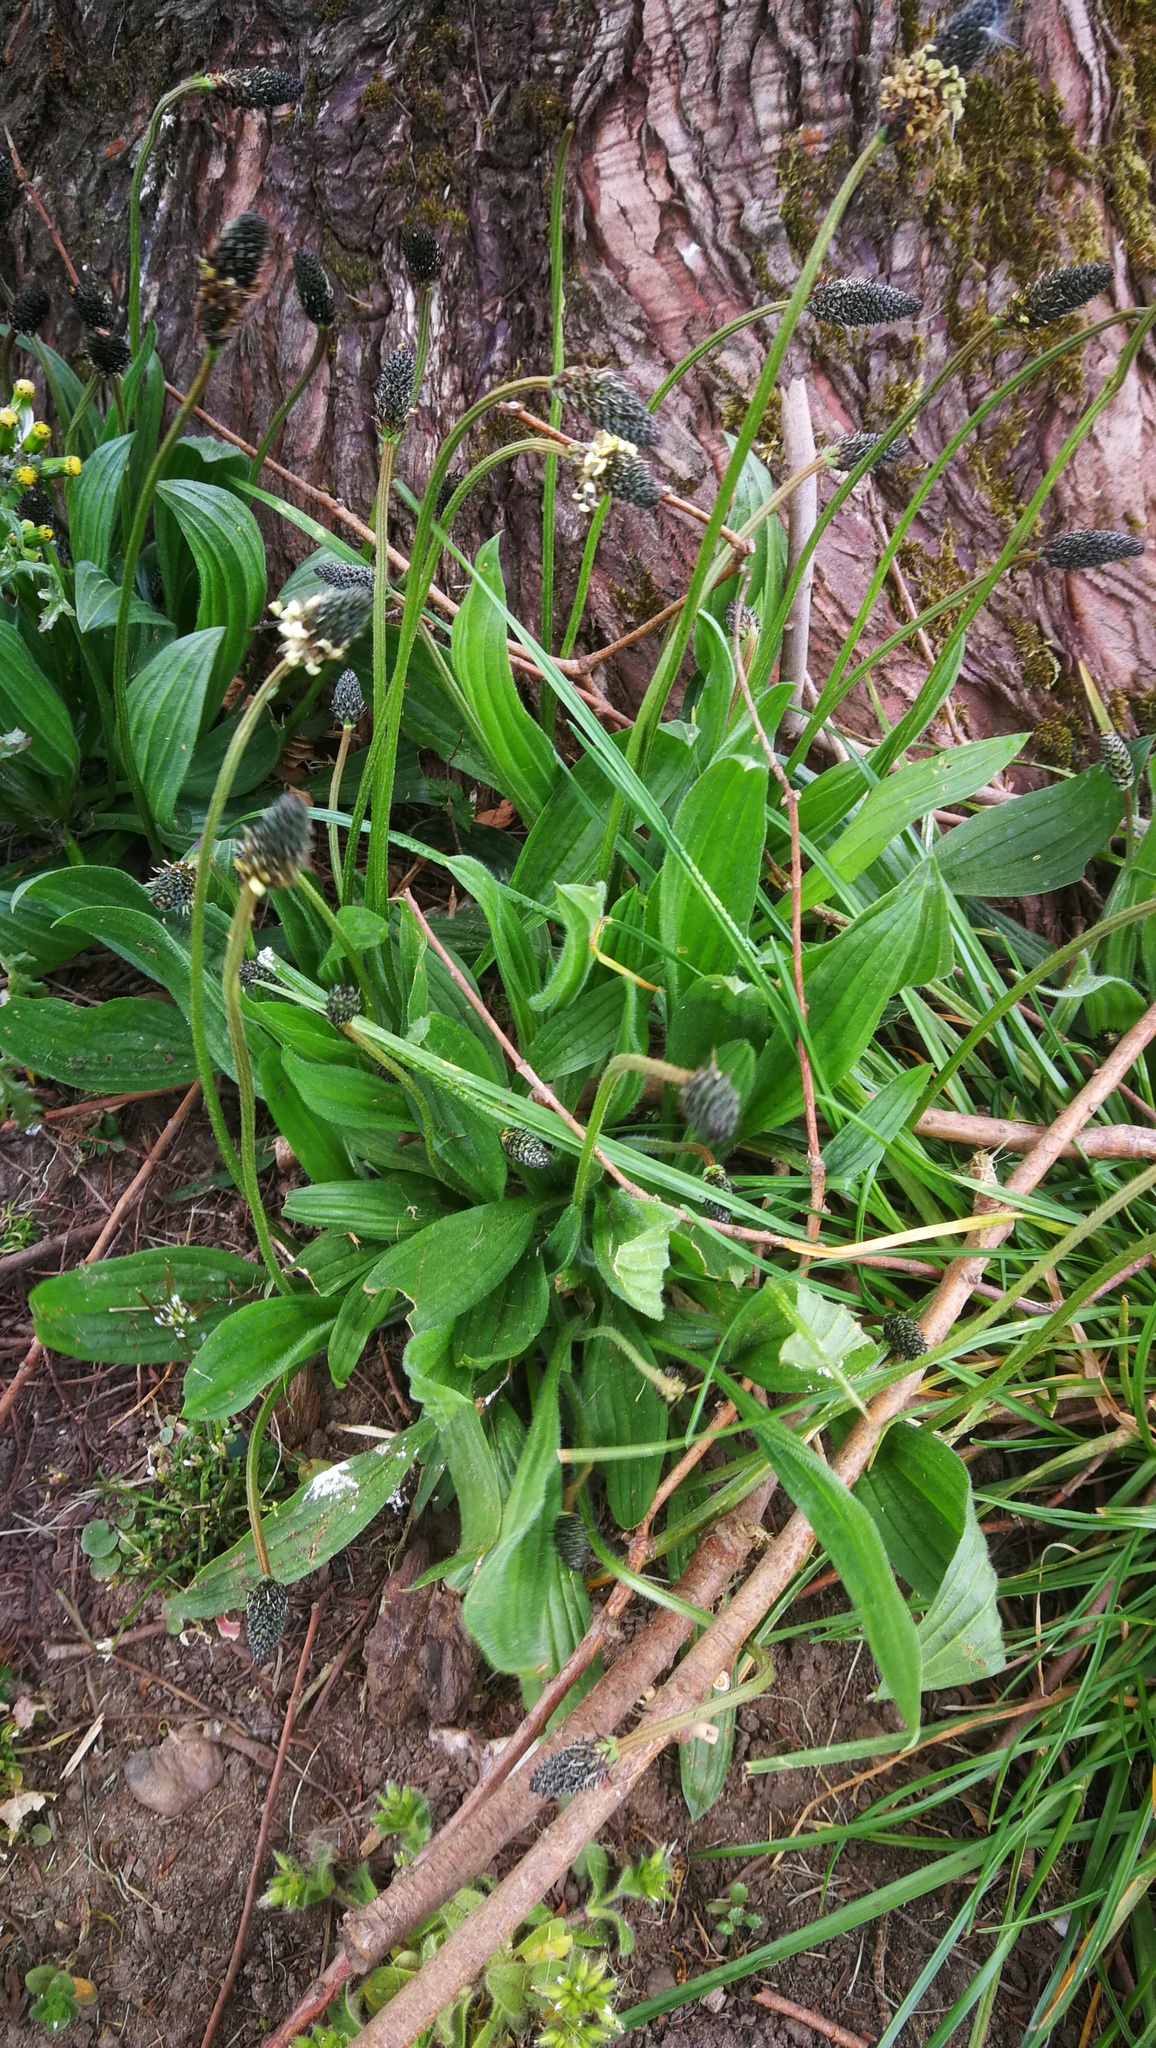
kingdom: Plantae
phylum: Tracheophyta
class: Magnoliopsida
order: Lamiales
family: Plantaginaceae
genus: Plantago
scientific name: Plantago lanceolata
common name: Ribwort plantain
